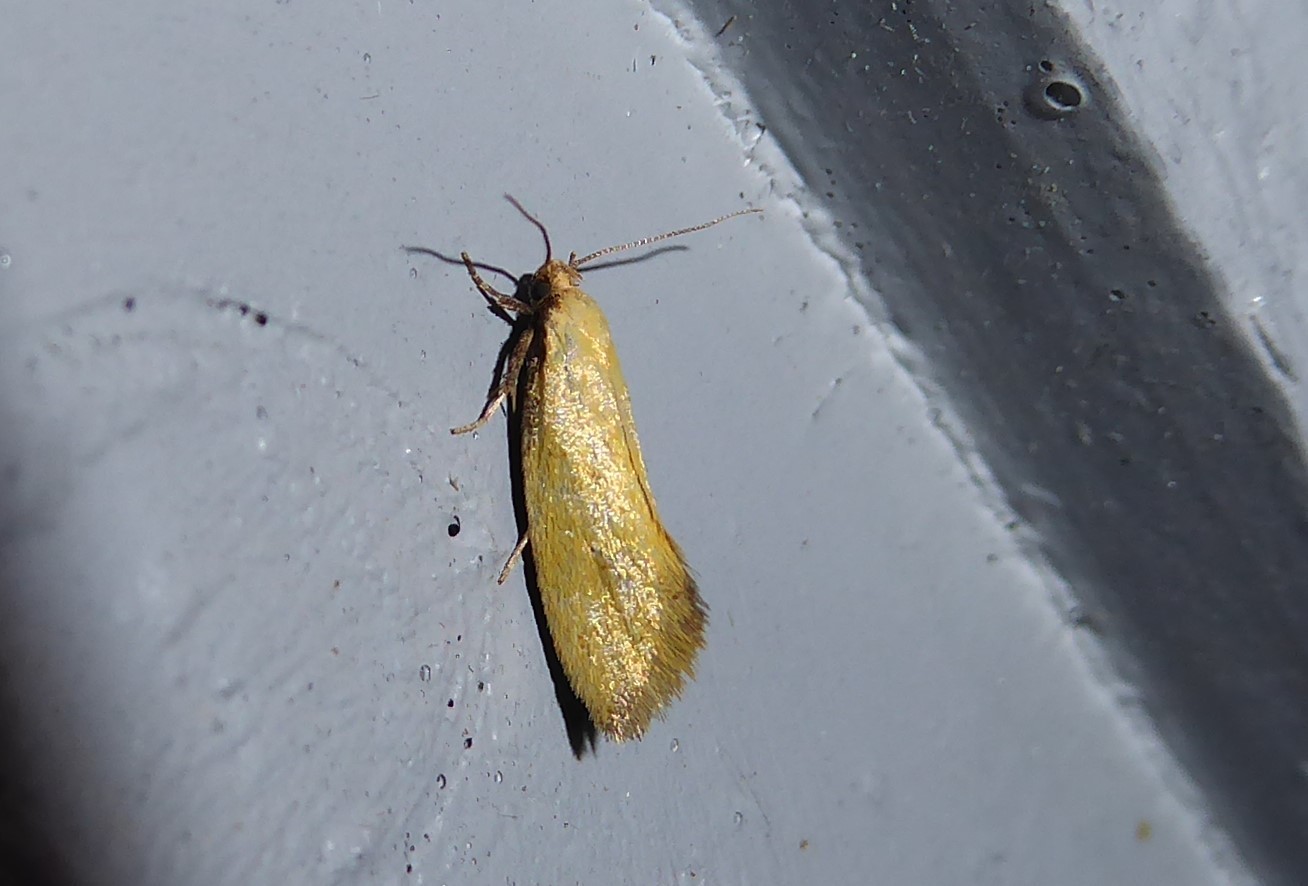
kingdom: Animalia
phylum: Arthropoda
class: Insecta
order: Lepidoptera
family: Oecophoridae
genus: Tingena
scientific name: Tingena actinias
